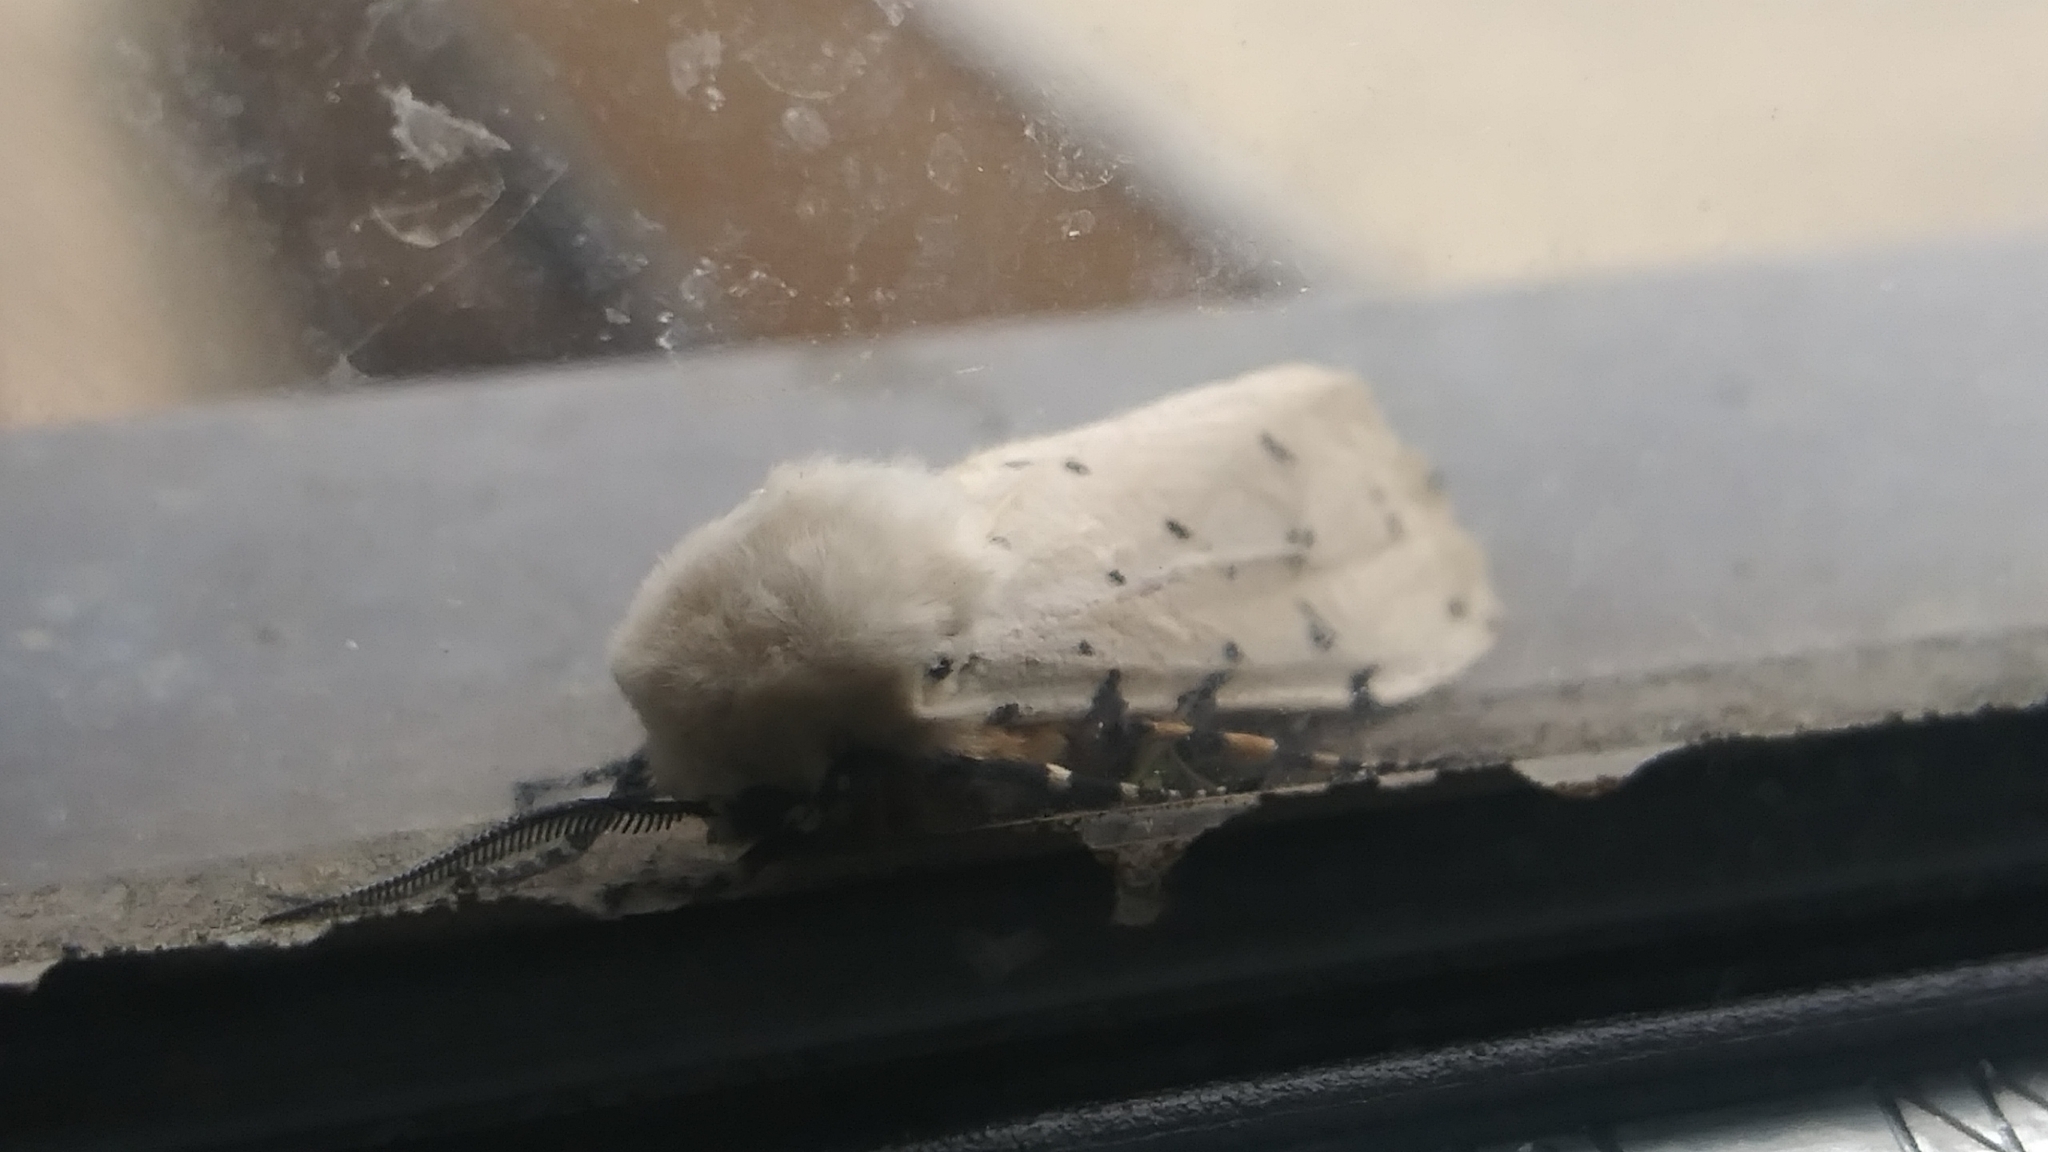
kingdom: Animalia
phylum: Arthropoda
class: Insecta
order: Lepidoptera
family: Erebidae
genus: Estigmene
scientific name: Estigmene acrea
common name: Salt marsh moth
